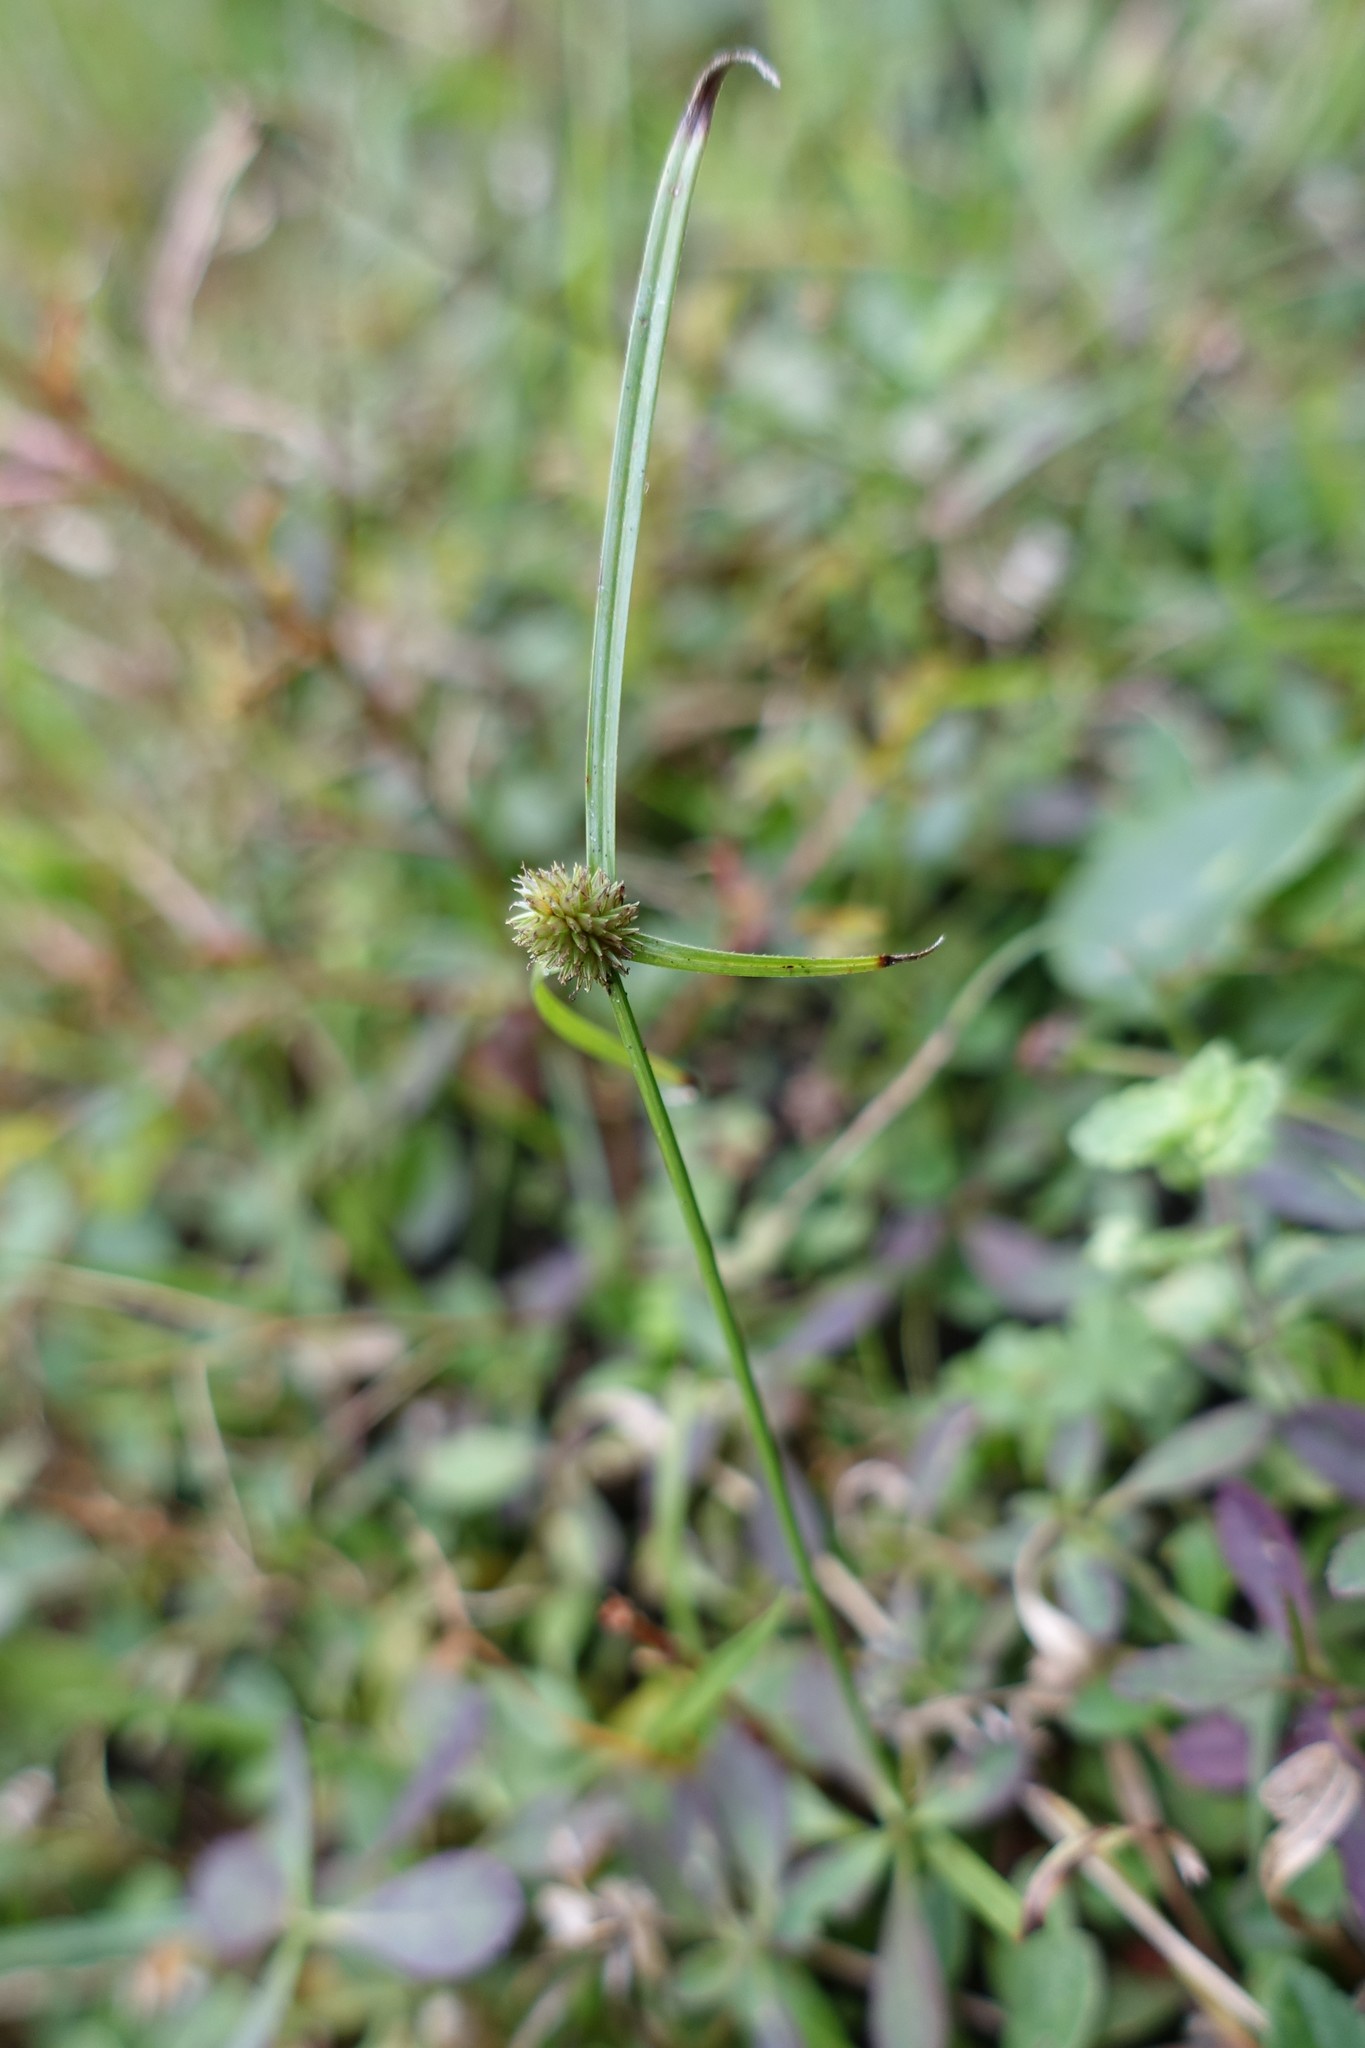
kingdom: Plantae
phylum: Tracheophyta
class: Liliopsida
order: Poales
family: Cyperaceae
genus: Cyperus
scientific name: Cyperus brevifolius
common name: Globe kyllinga
